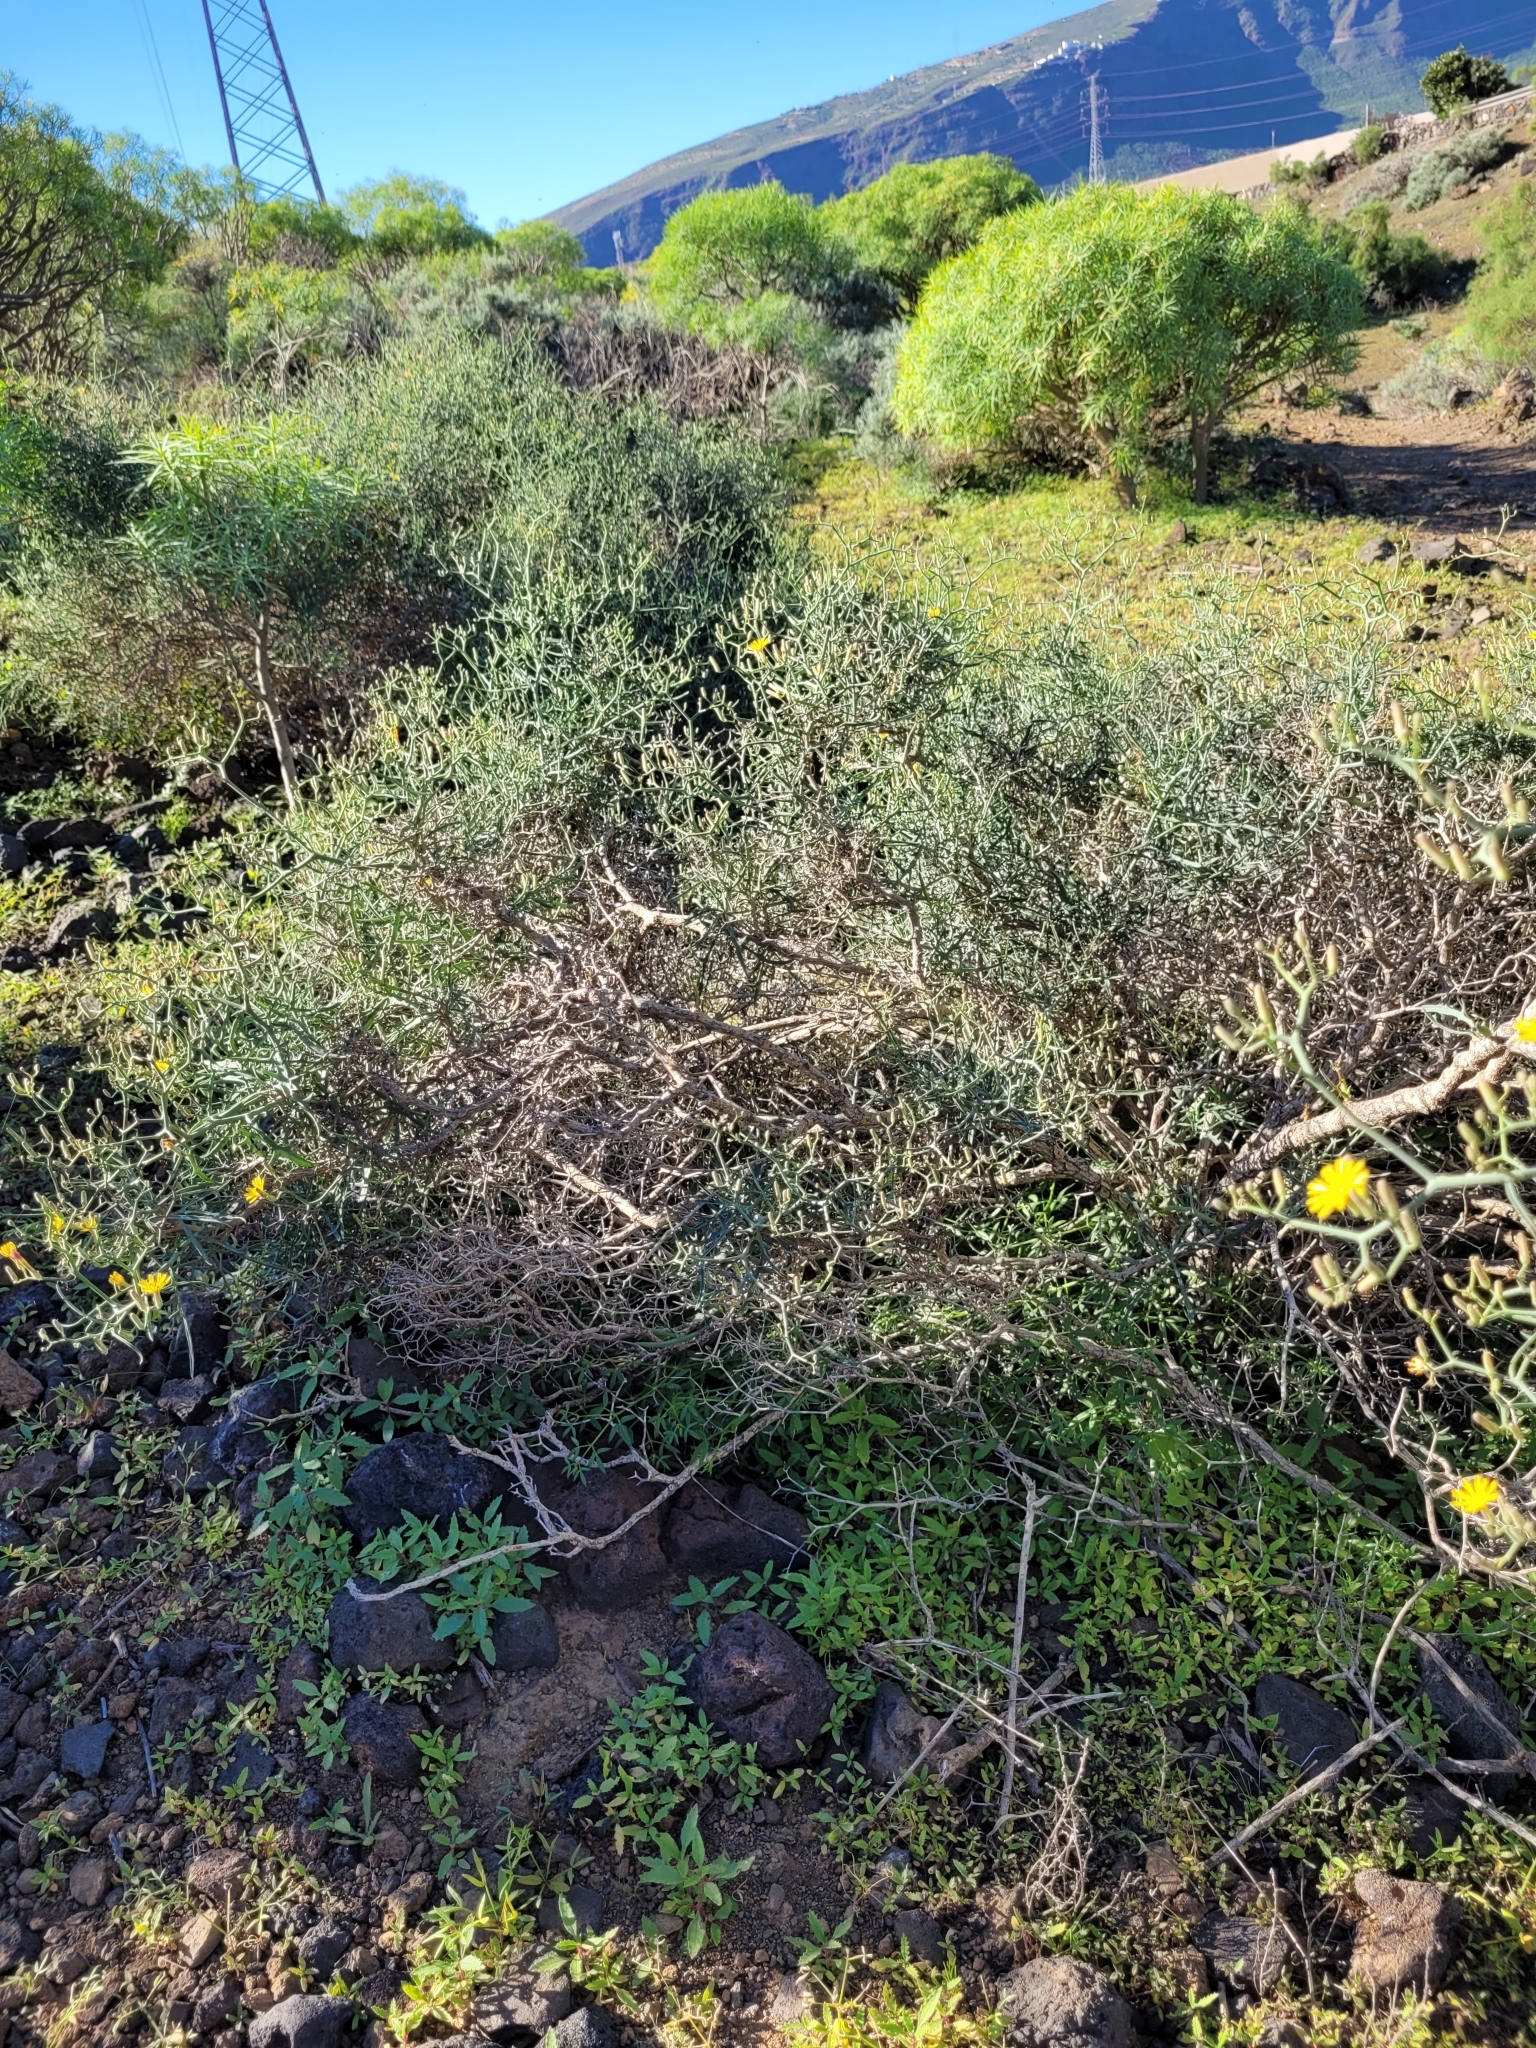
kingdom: Plantae
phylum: Tracheophyta
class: Magnoliopsida
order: Asterales
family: Asteraceae
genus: Launaea
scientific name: Launaea arborescens
